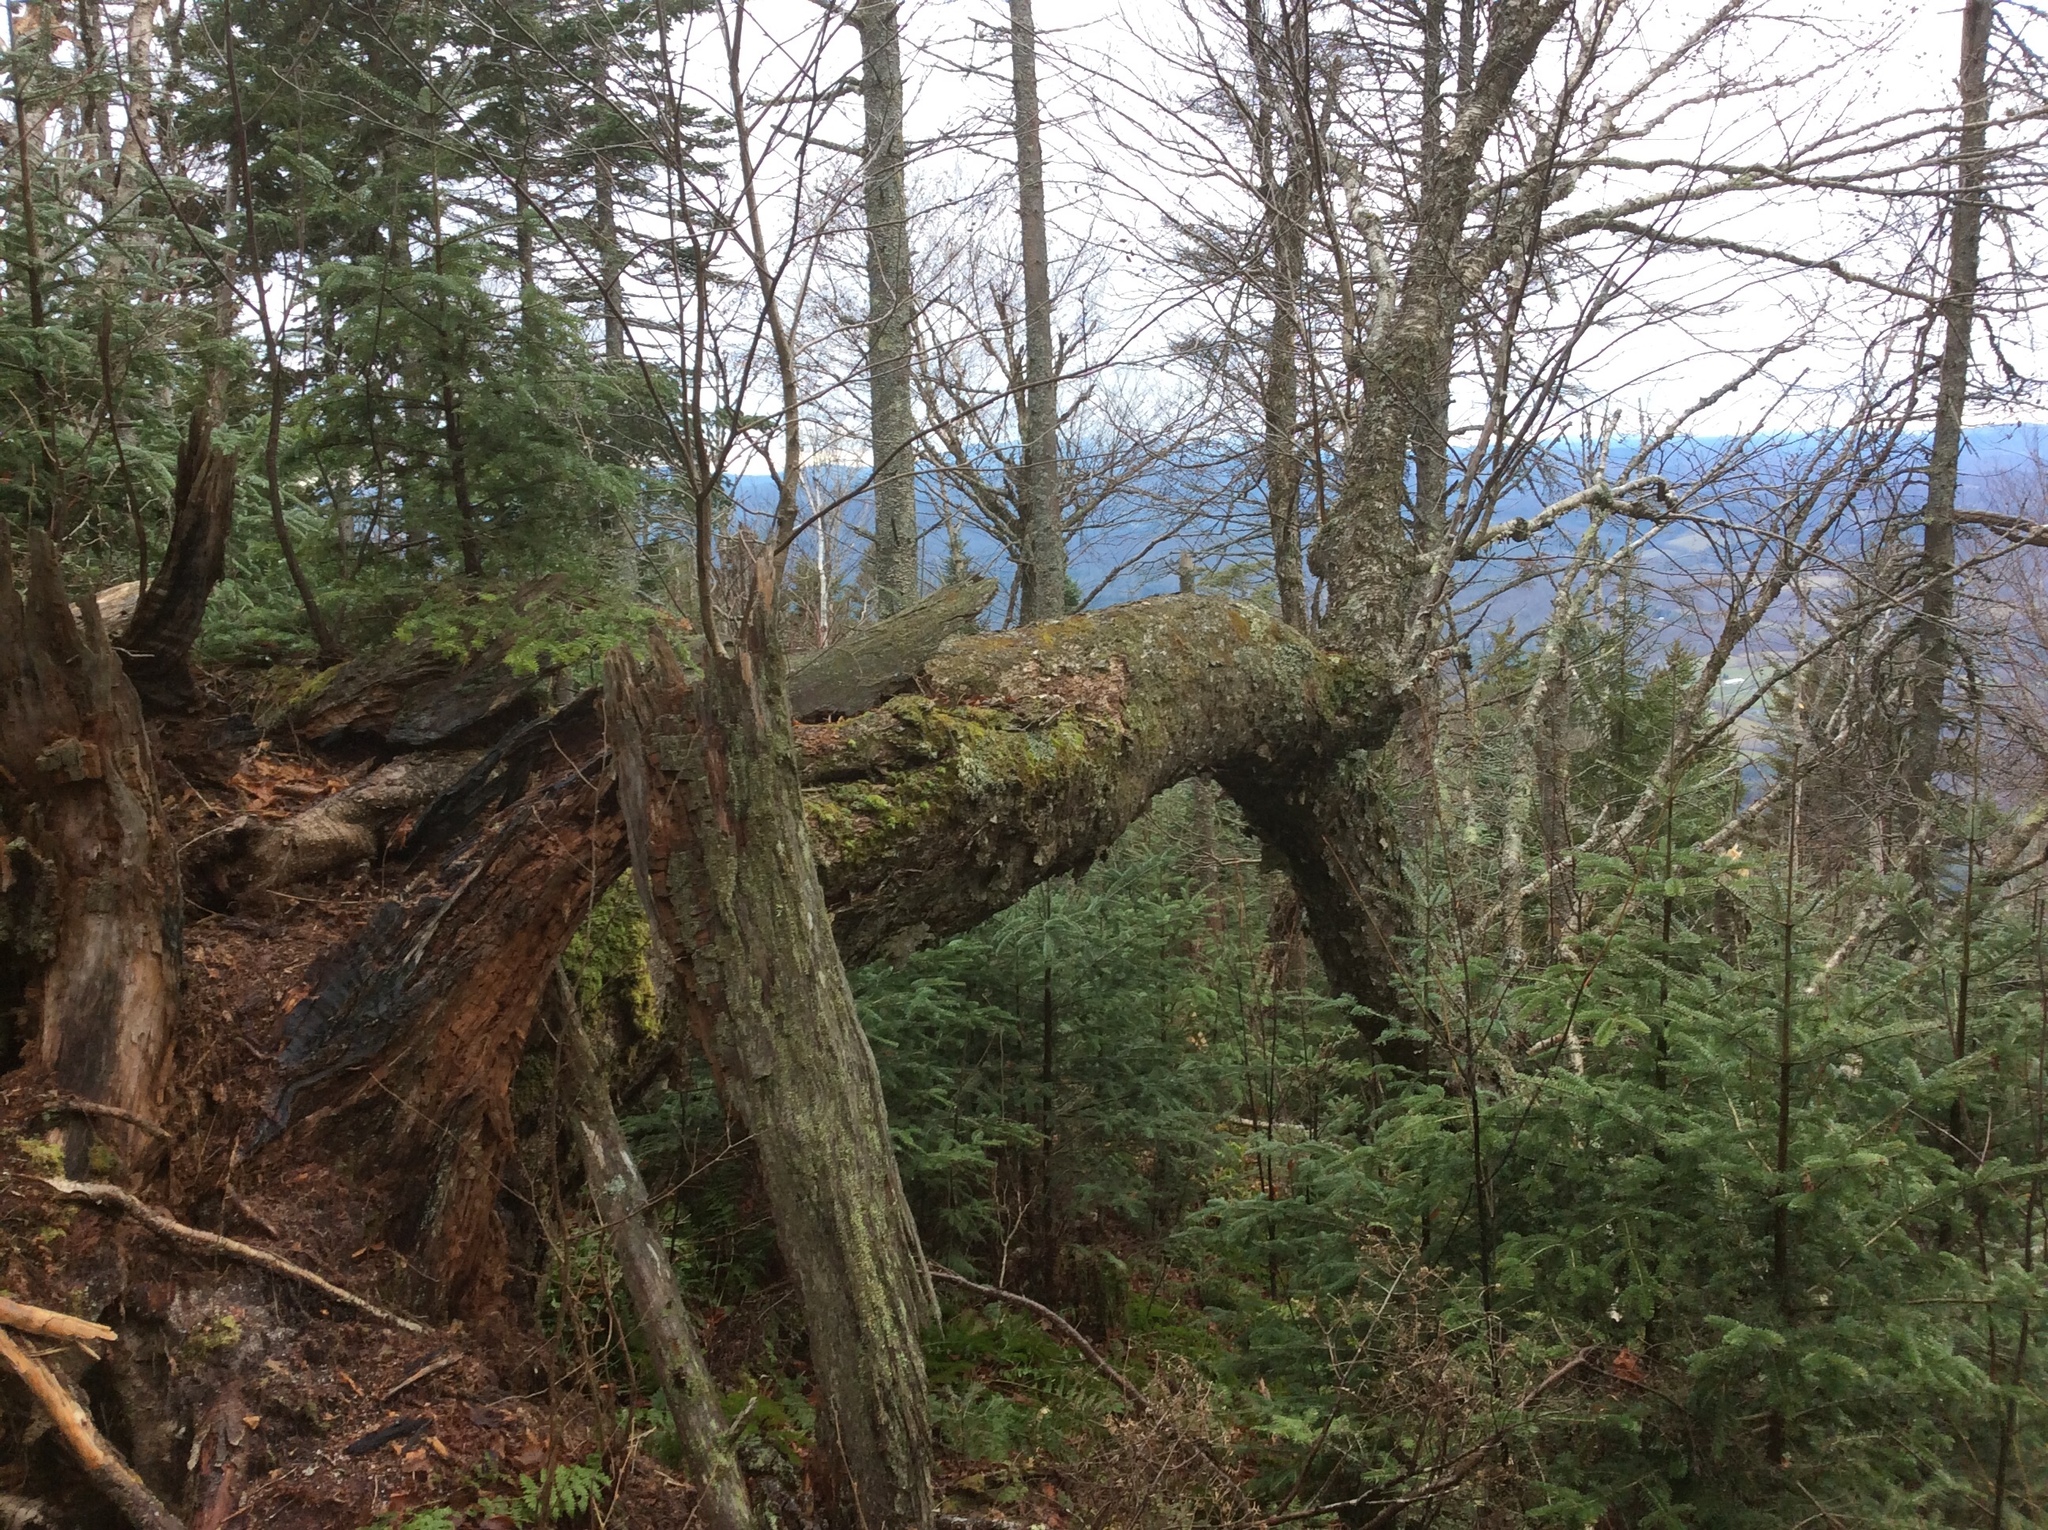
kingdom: Plantae
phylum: Tracheophyta
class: Magnoliopsida
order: Fagales
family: Betulaceae
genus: Betula
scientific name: Betula alleghaniensis
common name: Yellow birch
